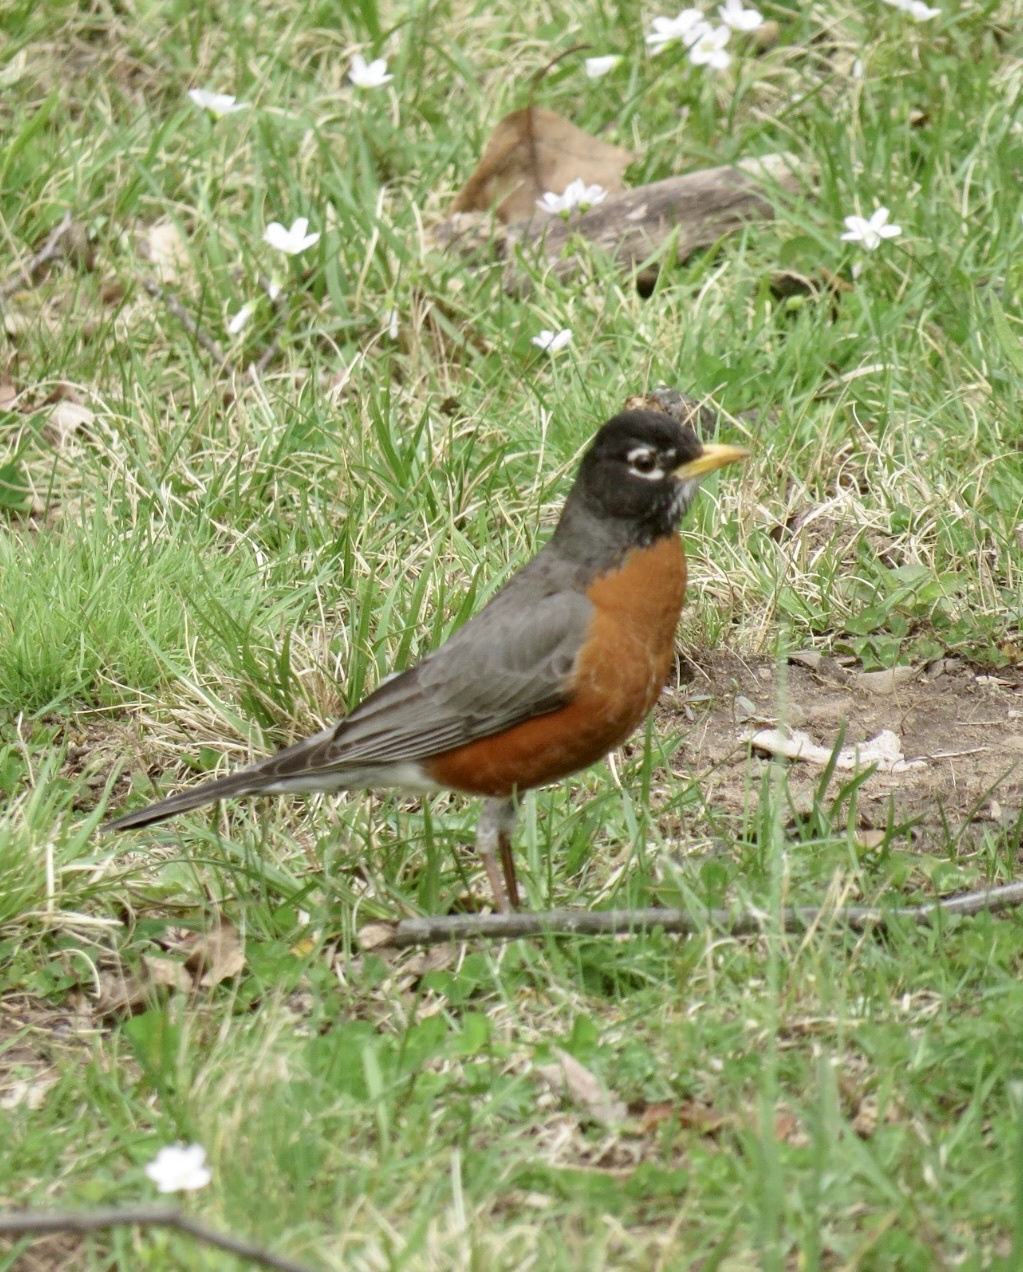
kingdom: Animalia
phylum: Chordata
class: Aves
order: Passeriformes
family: Turdidae
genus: Turdus
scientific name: Turdus migratorius
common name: American robin
